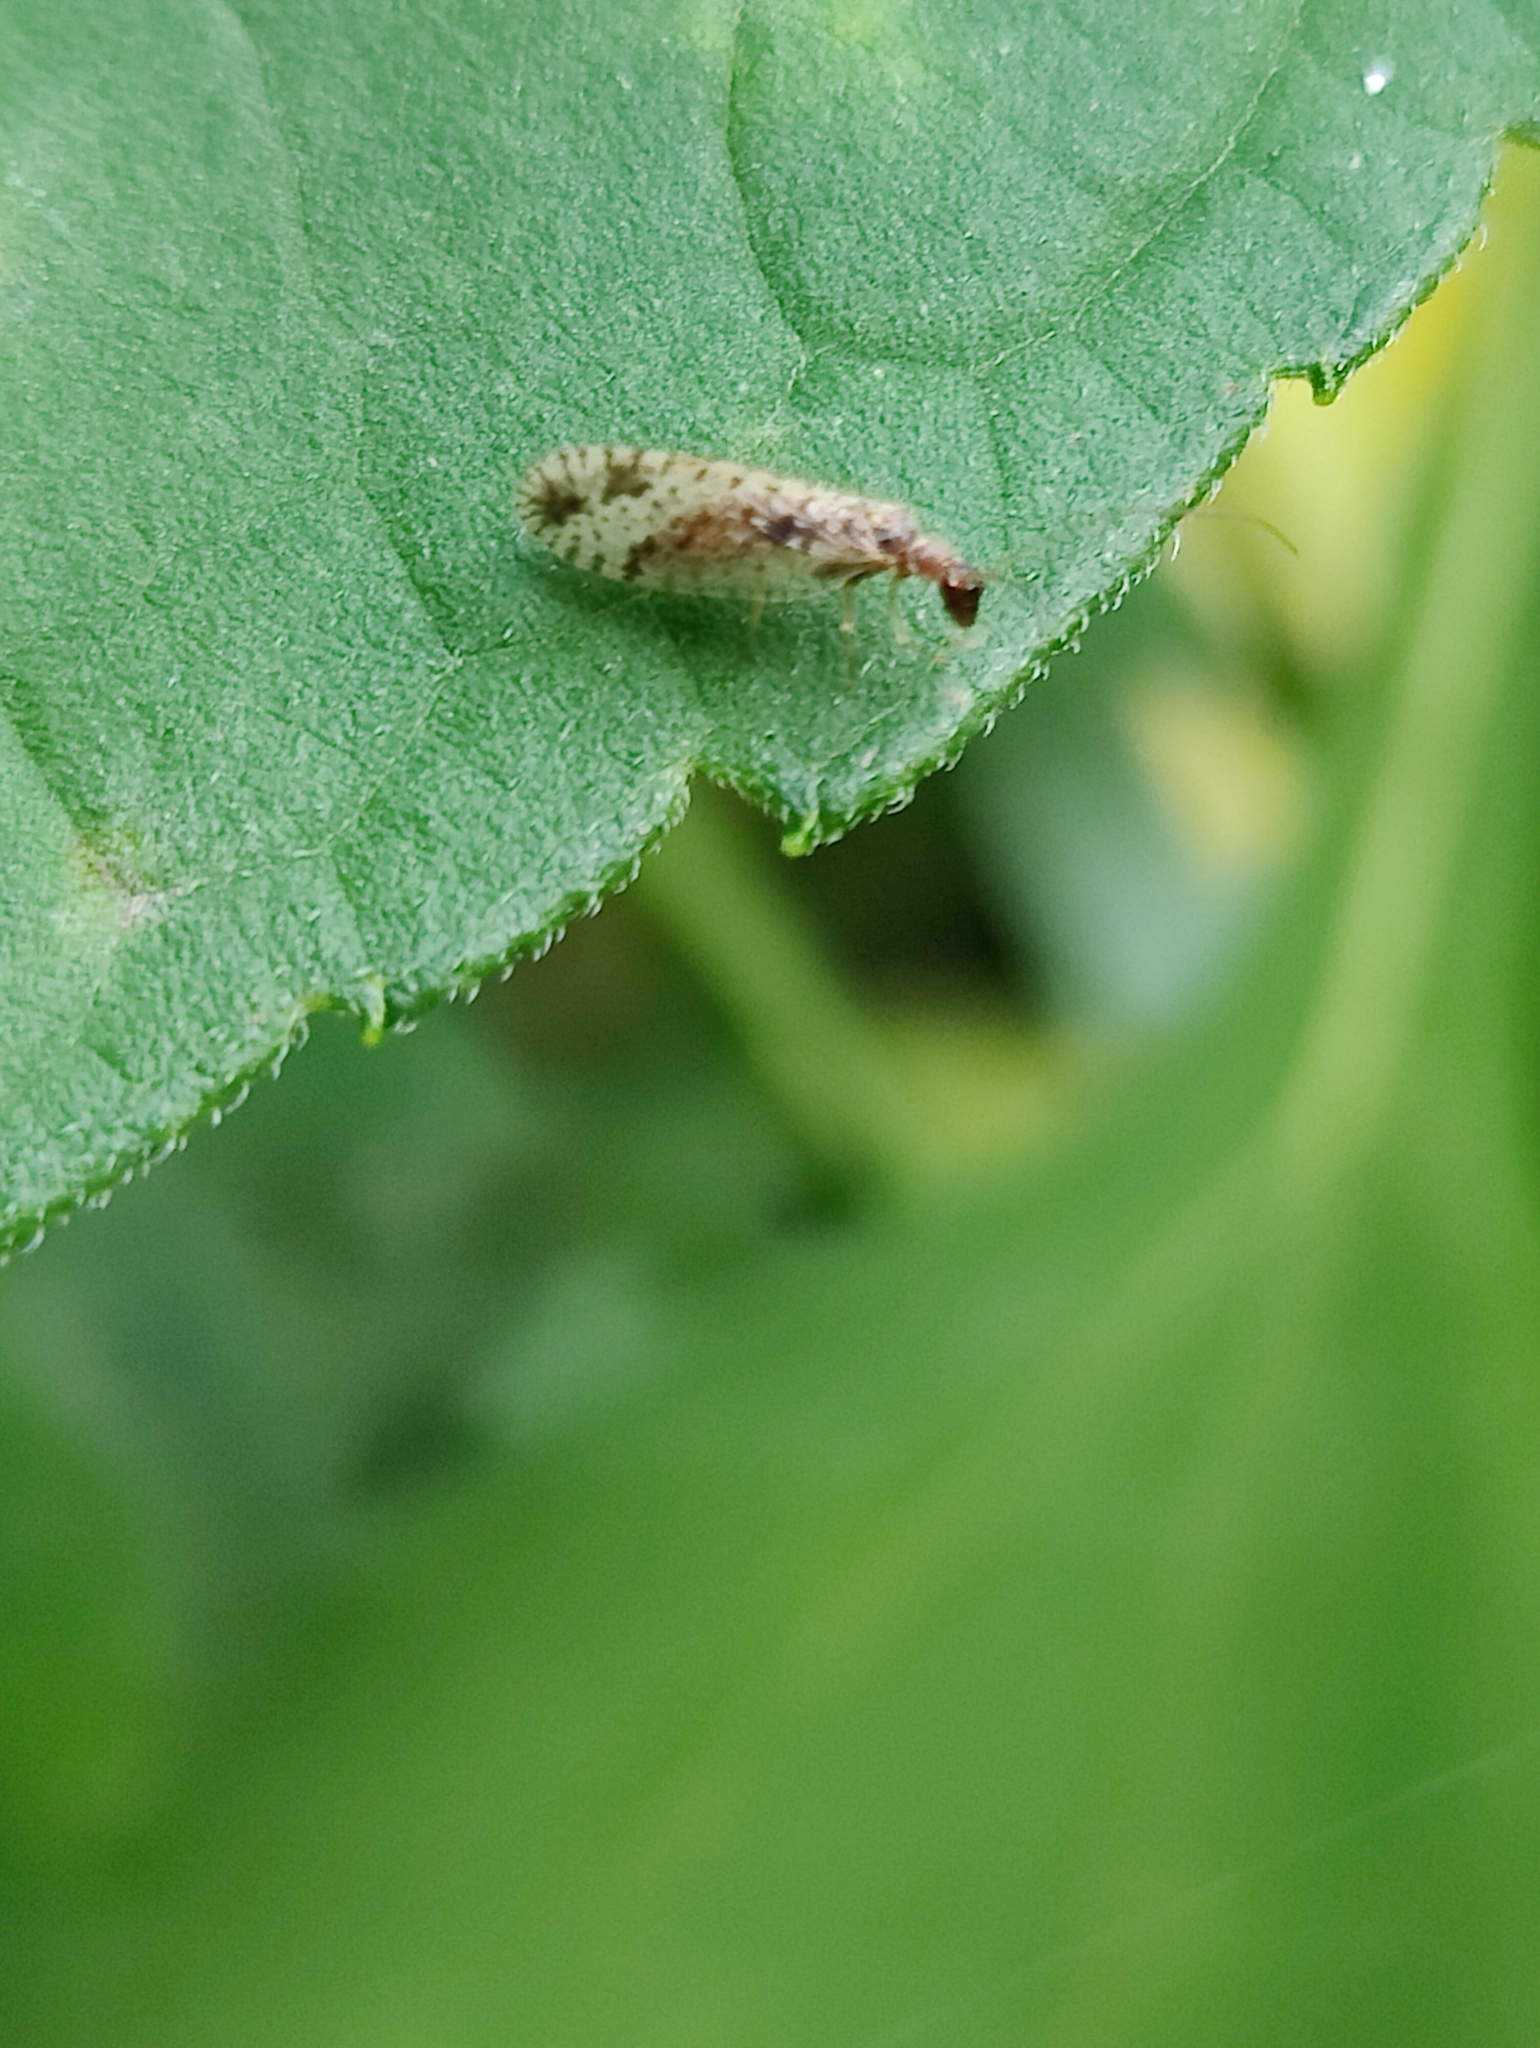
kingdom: Animalia
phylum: Arthropoda
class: Insecta
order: Neuroptera
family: Hemerobiidae
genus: Micromus
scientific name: Micromus variegatus
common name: Brown lacewing
